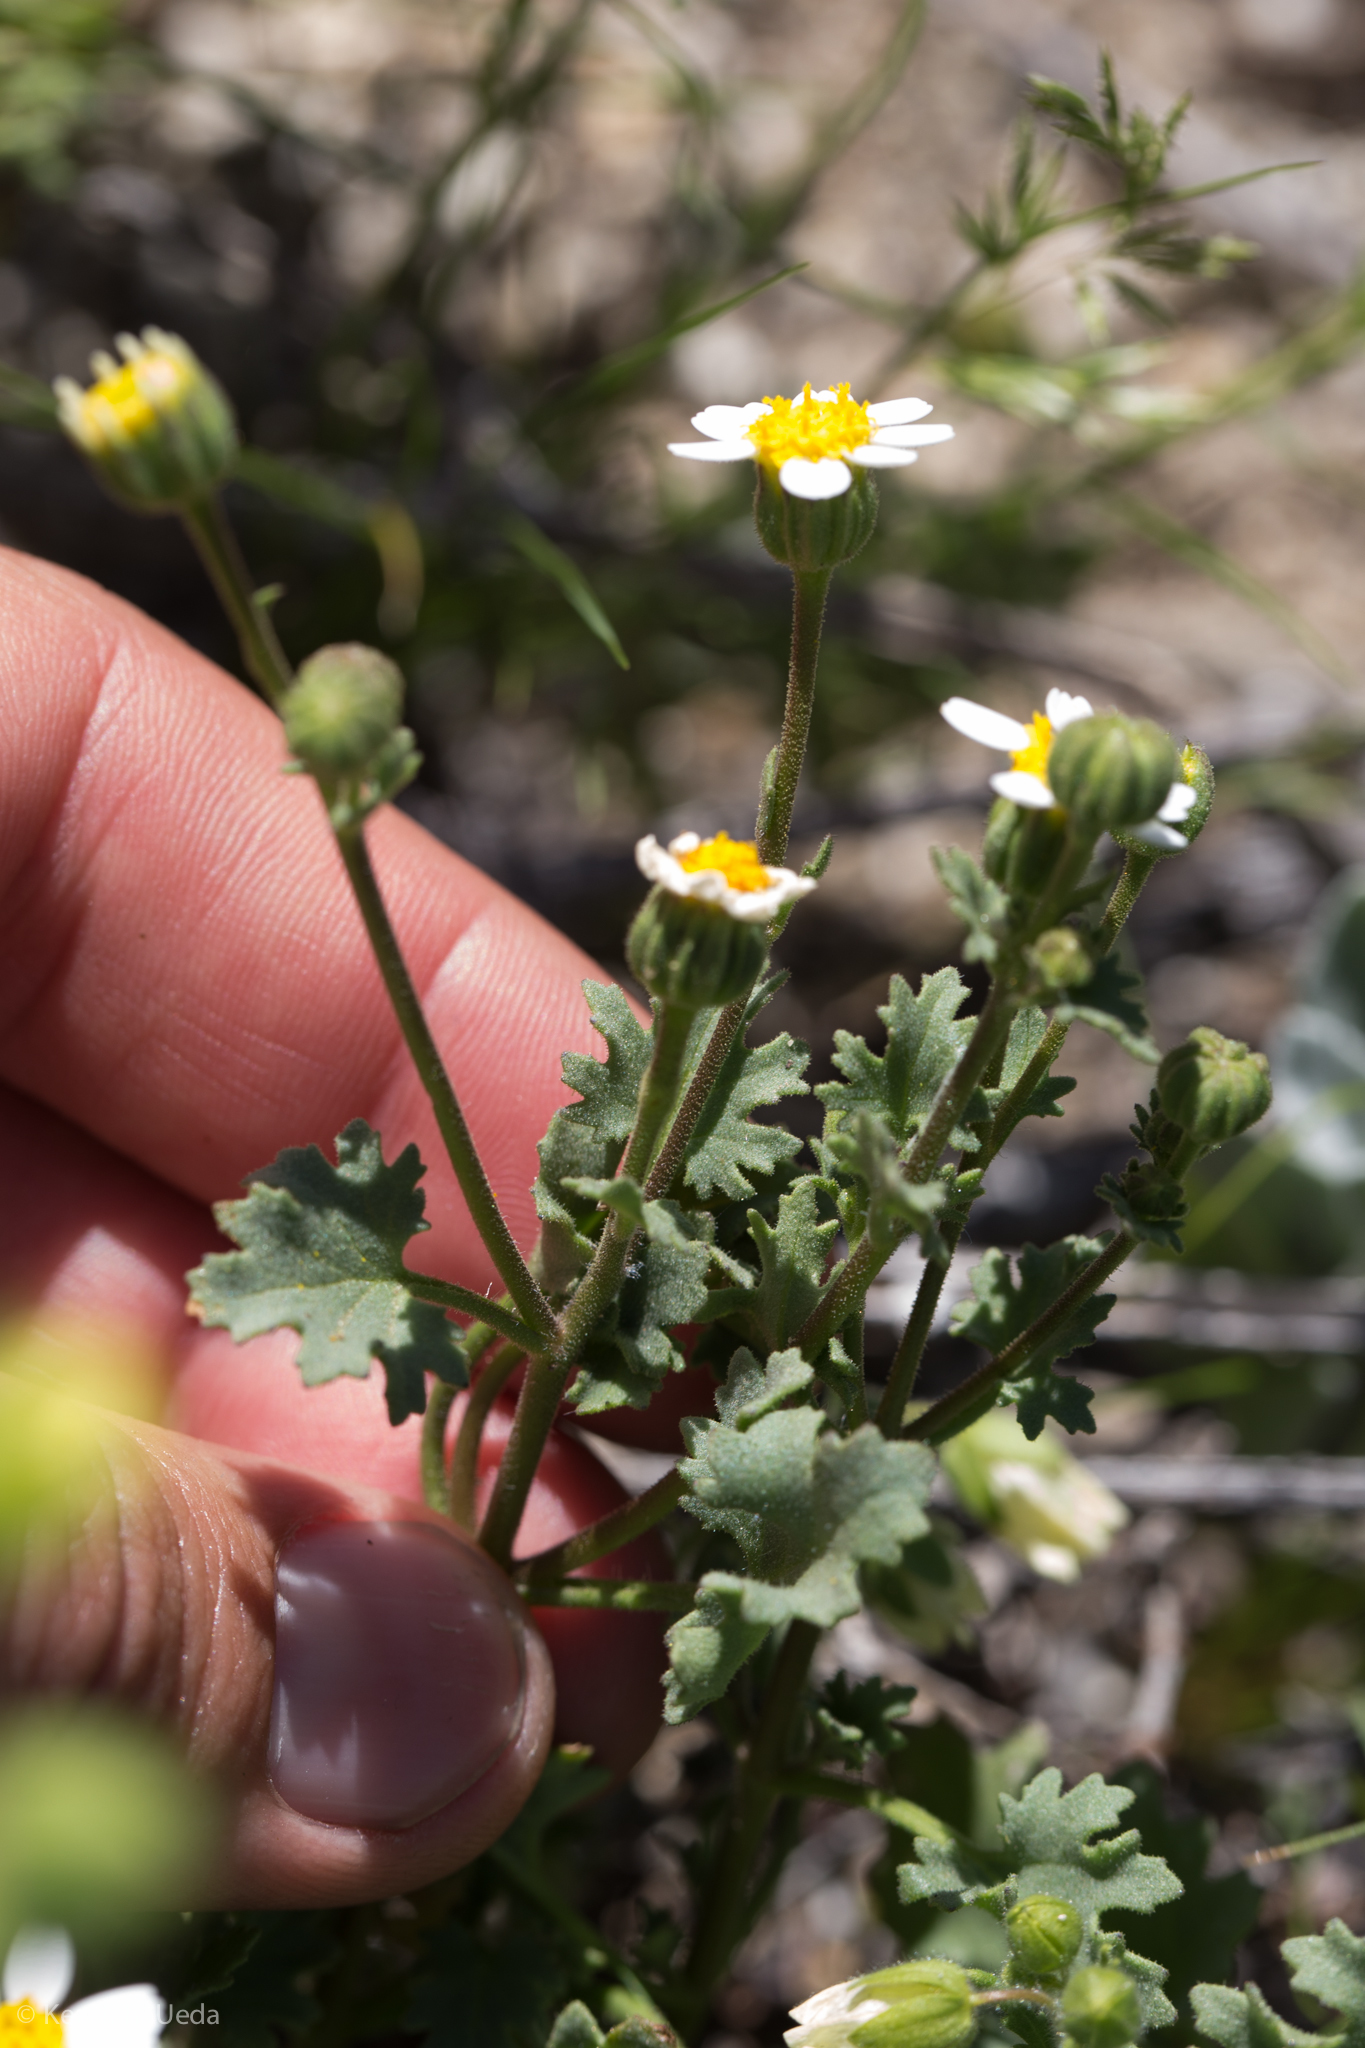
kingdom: Plantae
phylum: Tracheophyta
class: Magnoliopsida
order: Asterales
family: Asteraceae
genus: Laphamia
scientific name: Laphamia emoryi
